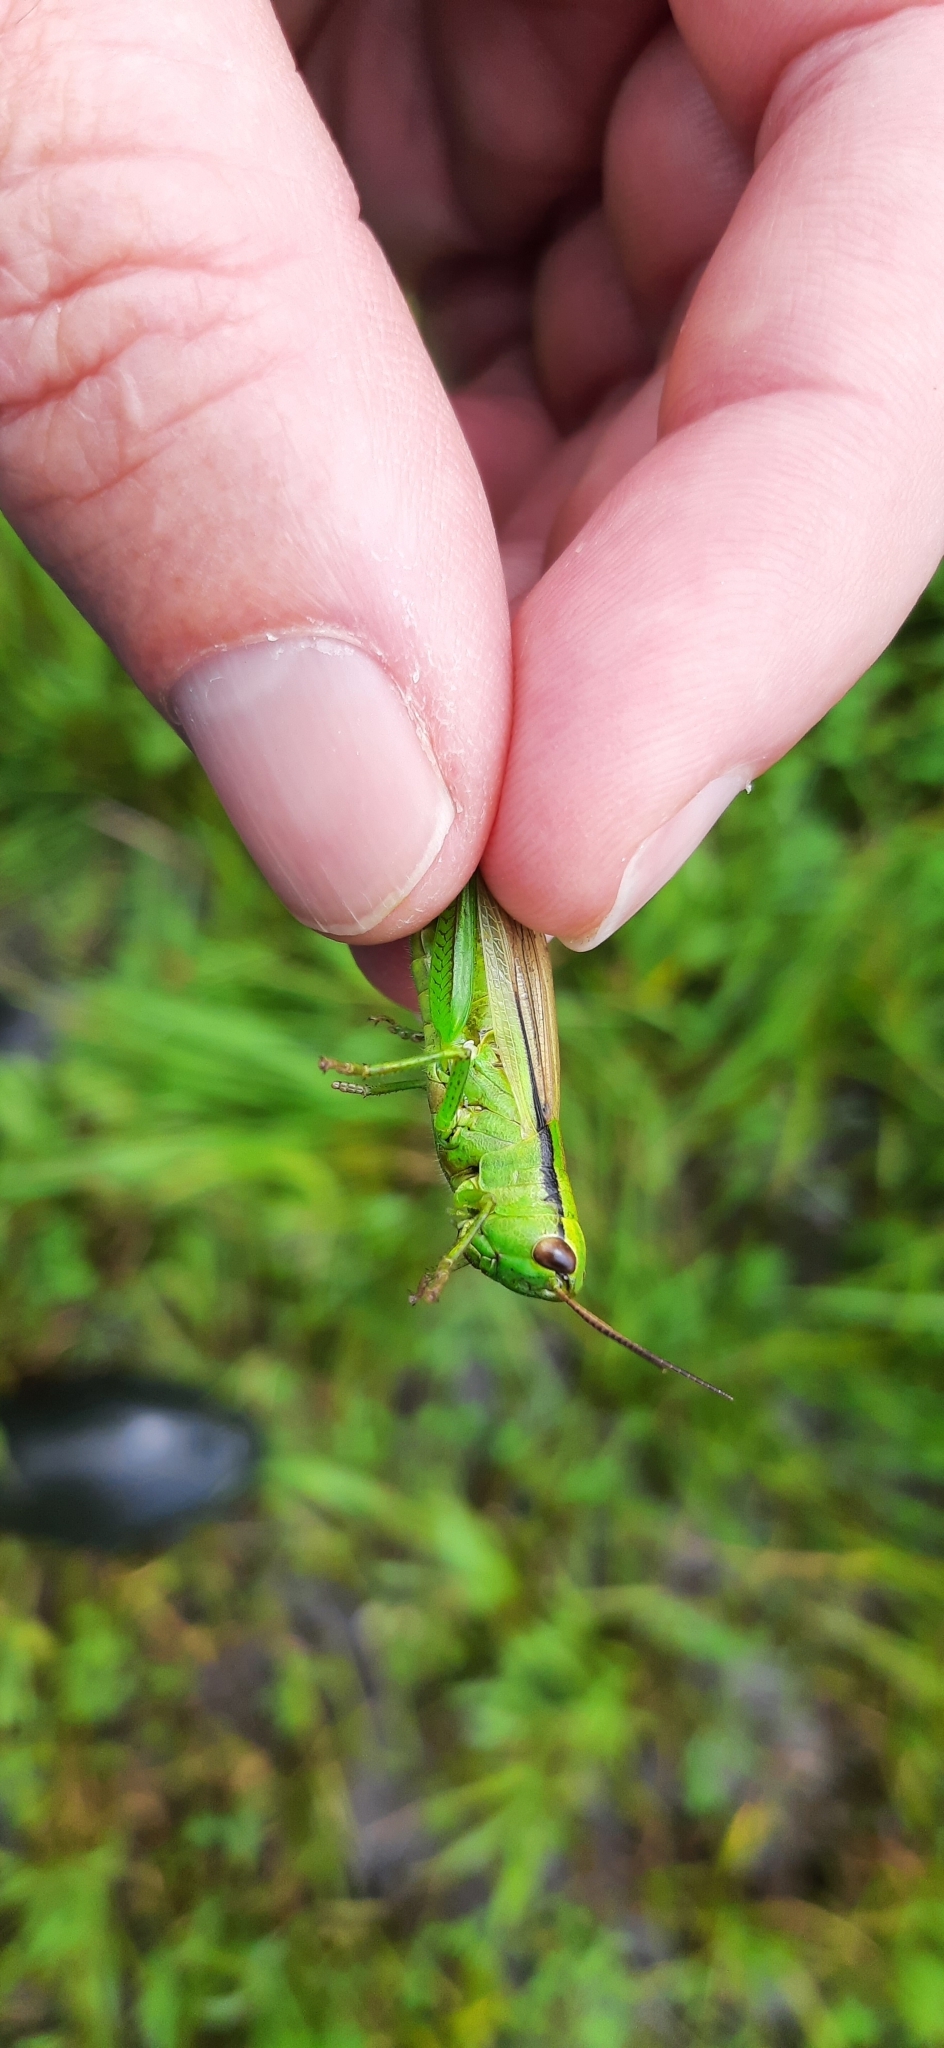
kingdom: Animalia
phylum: Arthropoda
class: Insecta
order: Orthoptera
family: Acrididae
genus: Mecostethus
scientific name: Mecostethus parapleurus
